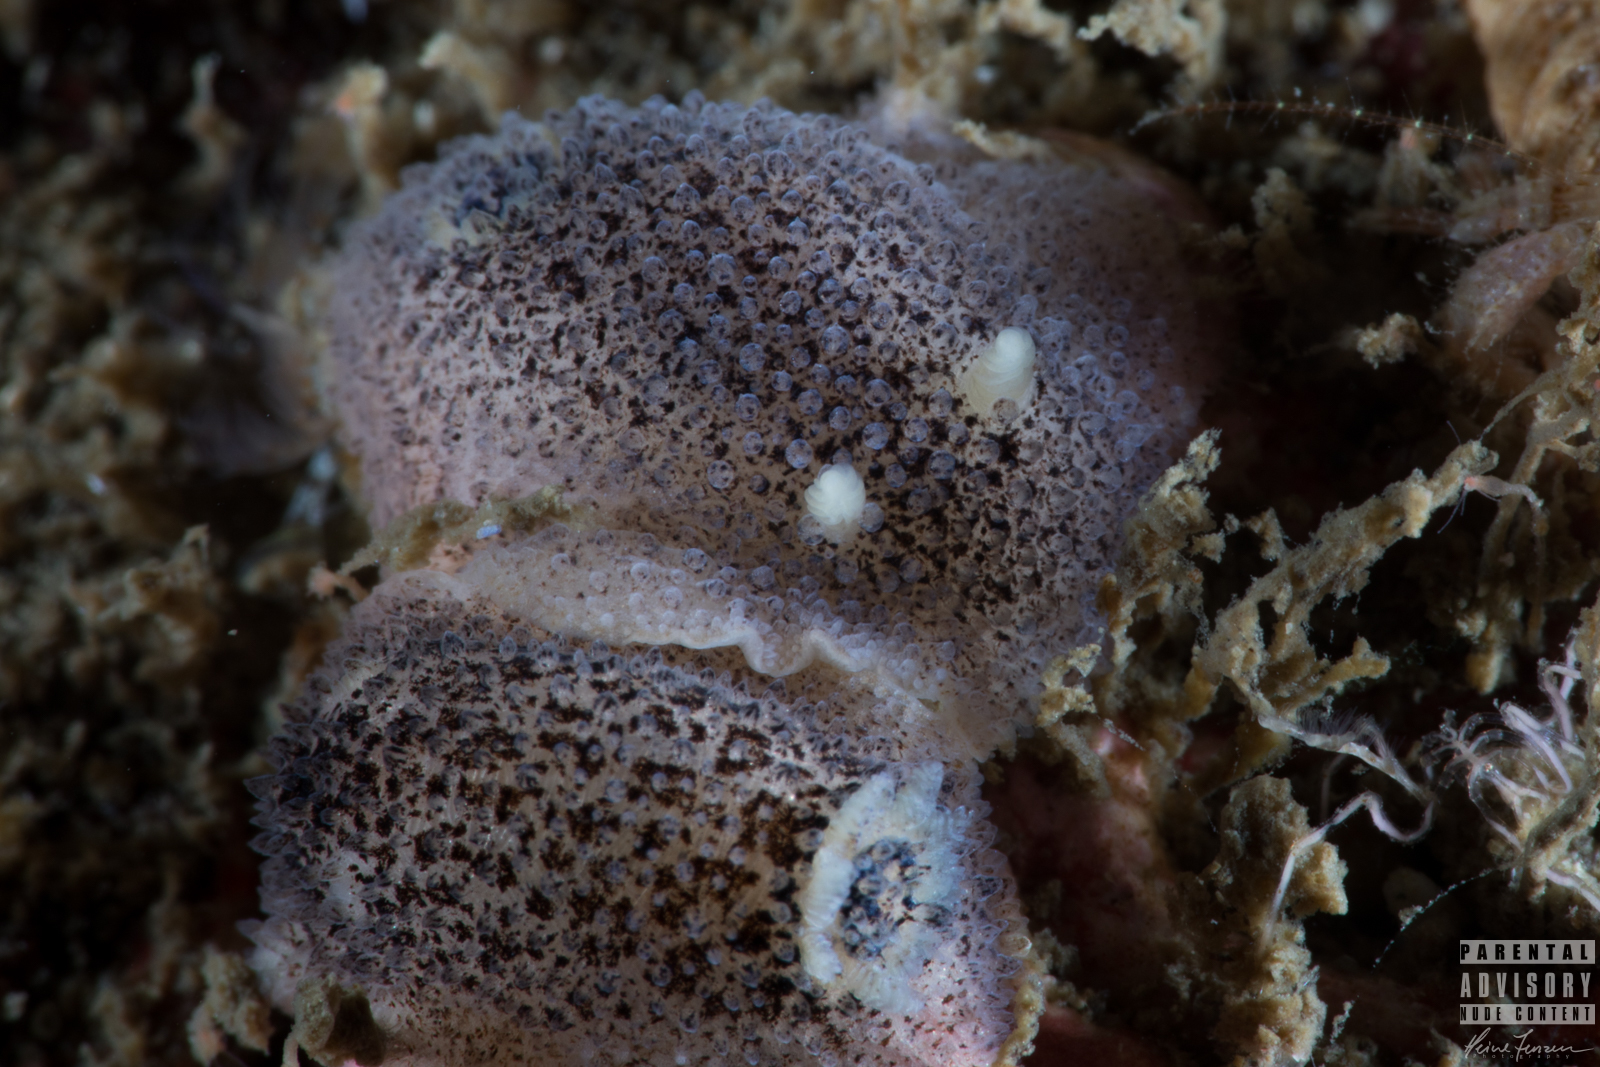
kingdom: Animalia
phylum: Mollusca
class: Gastropoda
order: Nudibranchia
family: Onchidorididae
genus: Atalodoris
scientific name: Atalodoris pusilla
